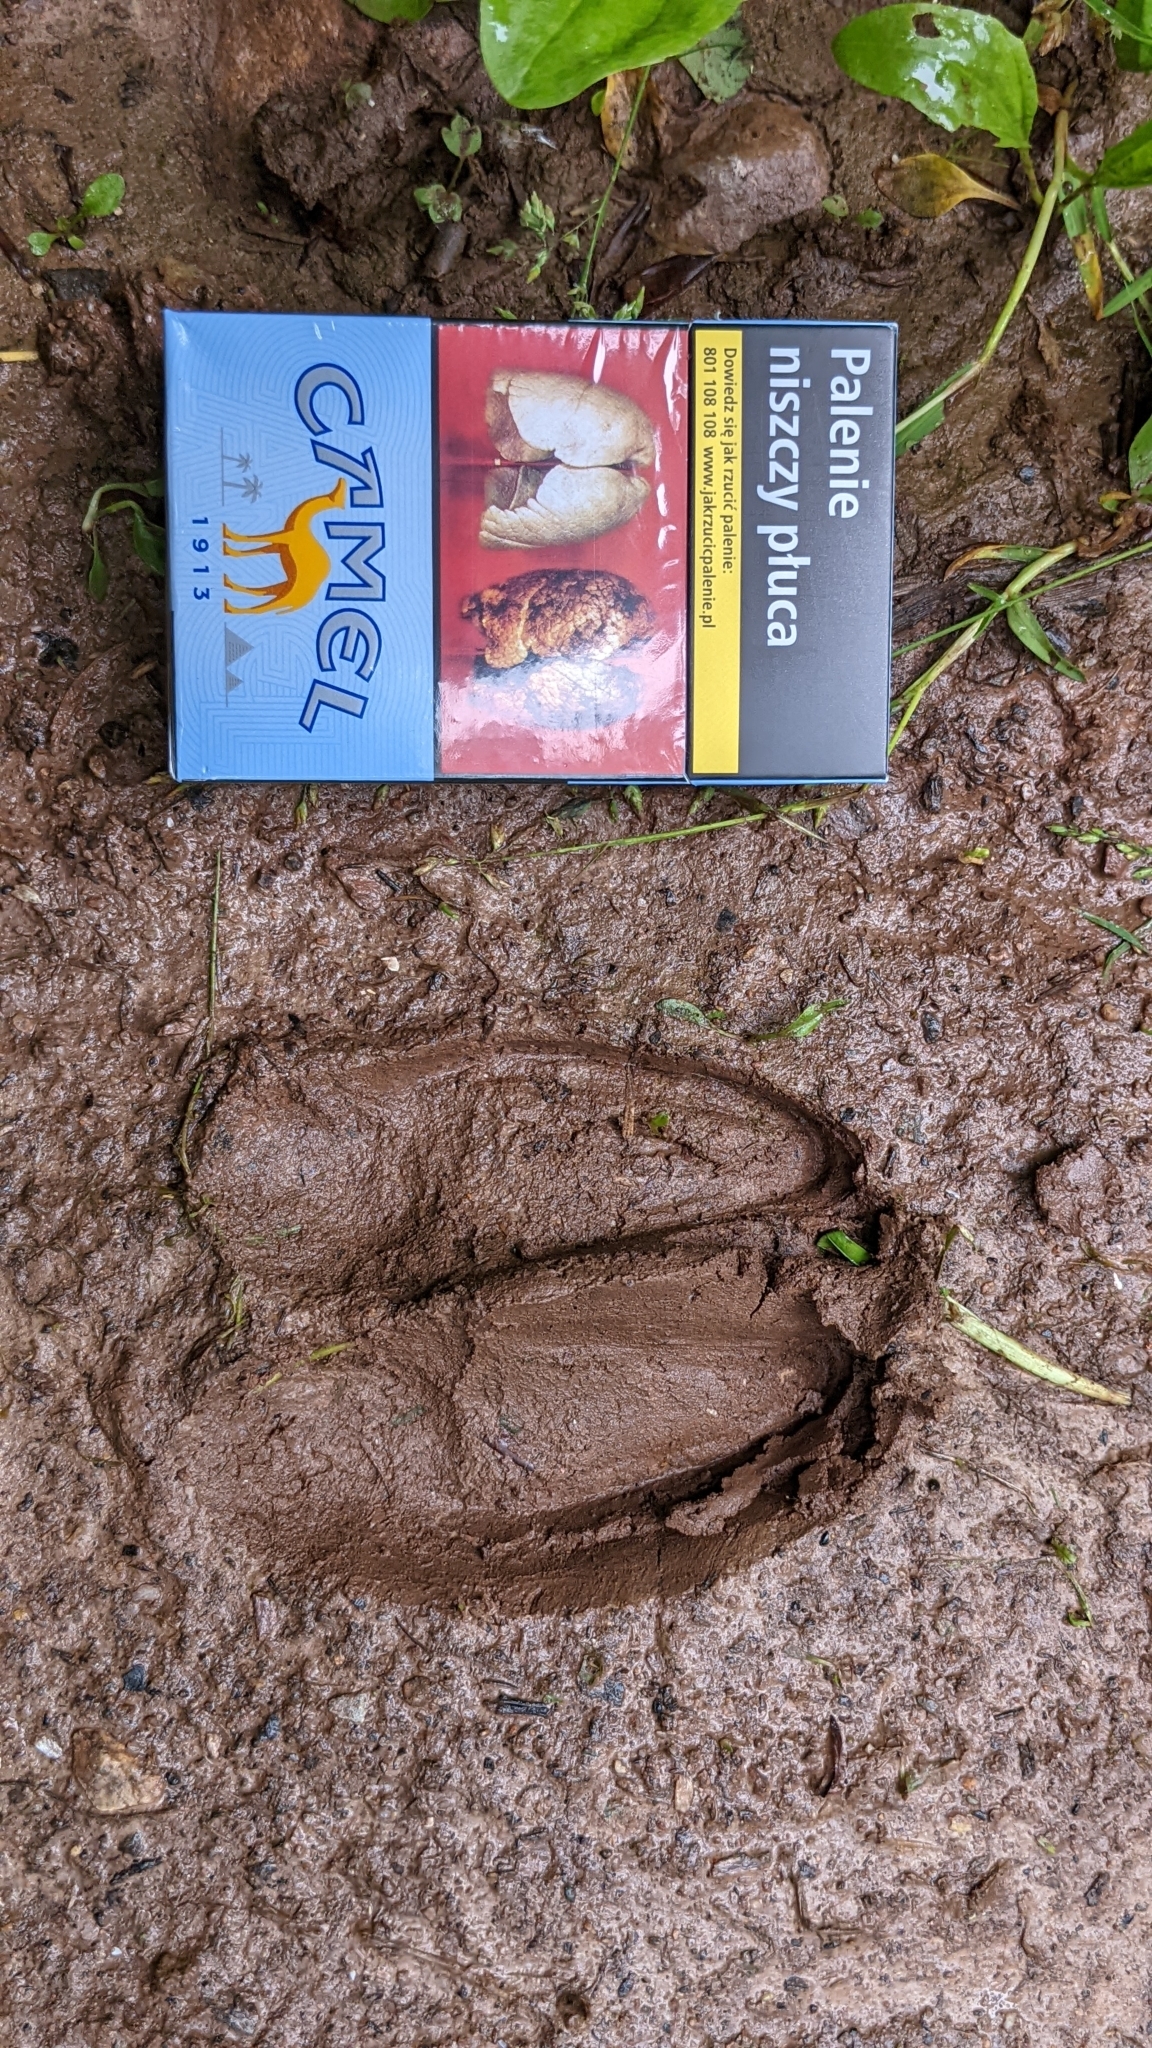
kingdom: Animalia
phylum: Chordata
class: Mammalia
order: Artiodactyla
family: Cervidae
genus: Cervus
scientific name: Cervus elaphus
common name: Red deer
